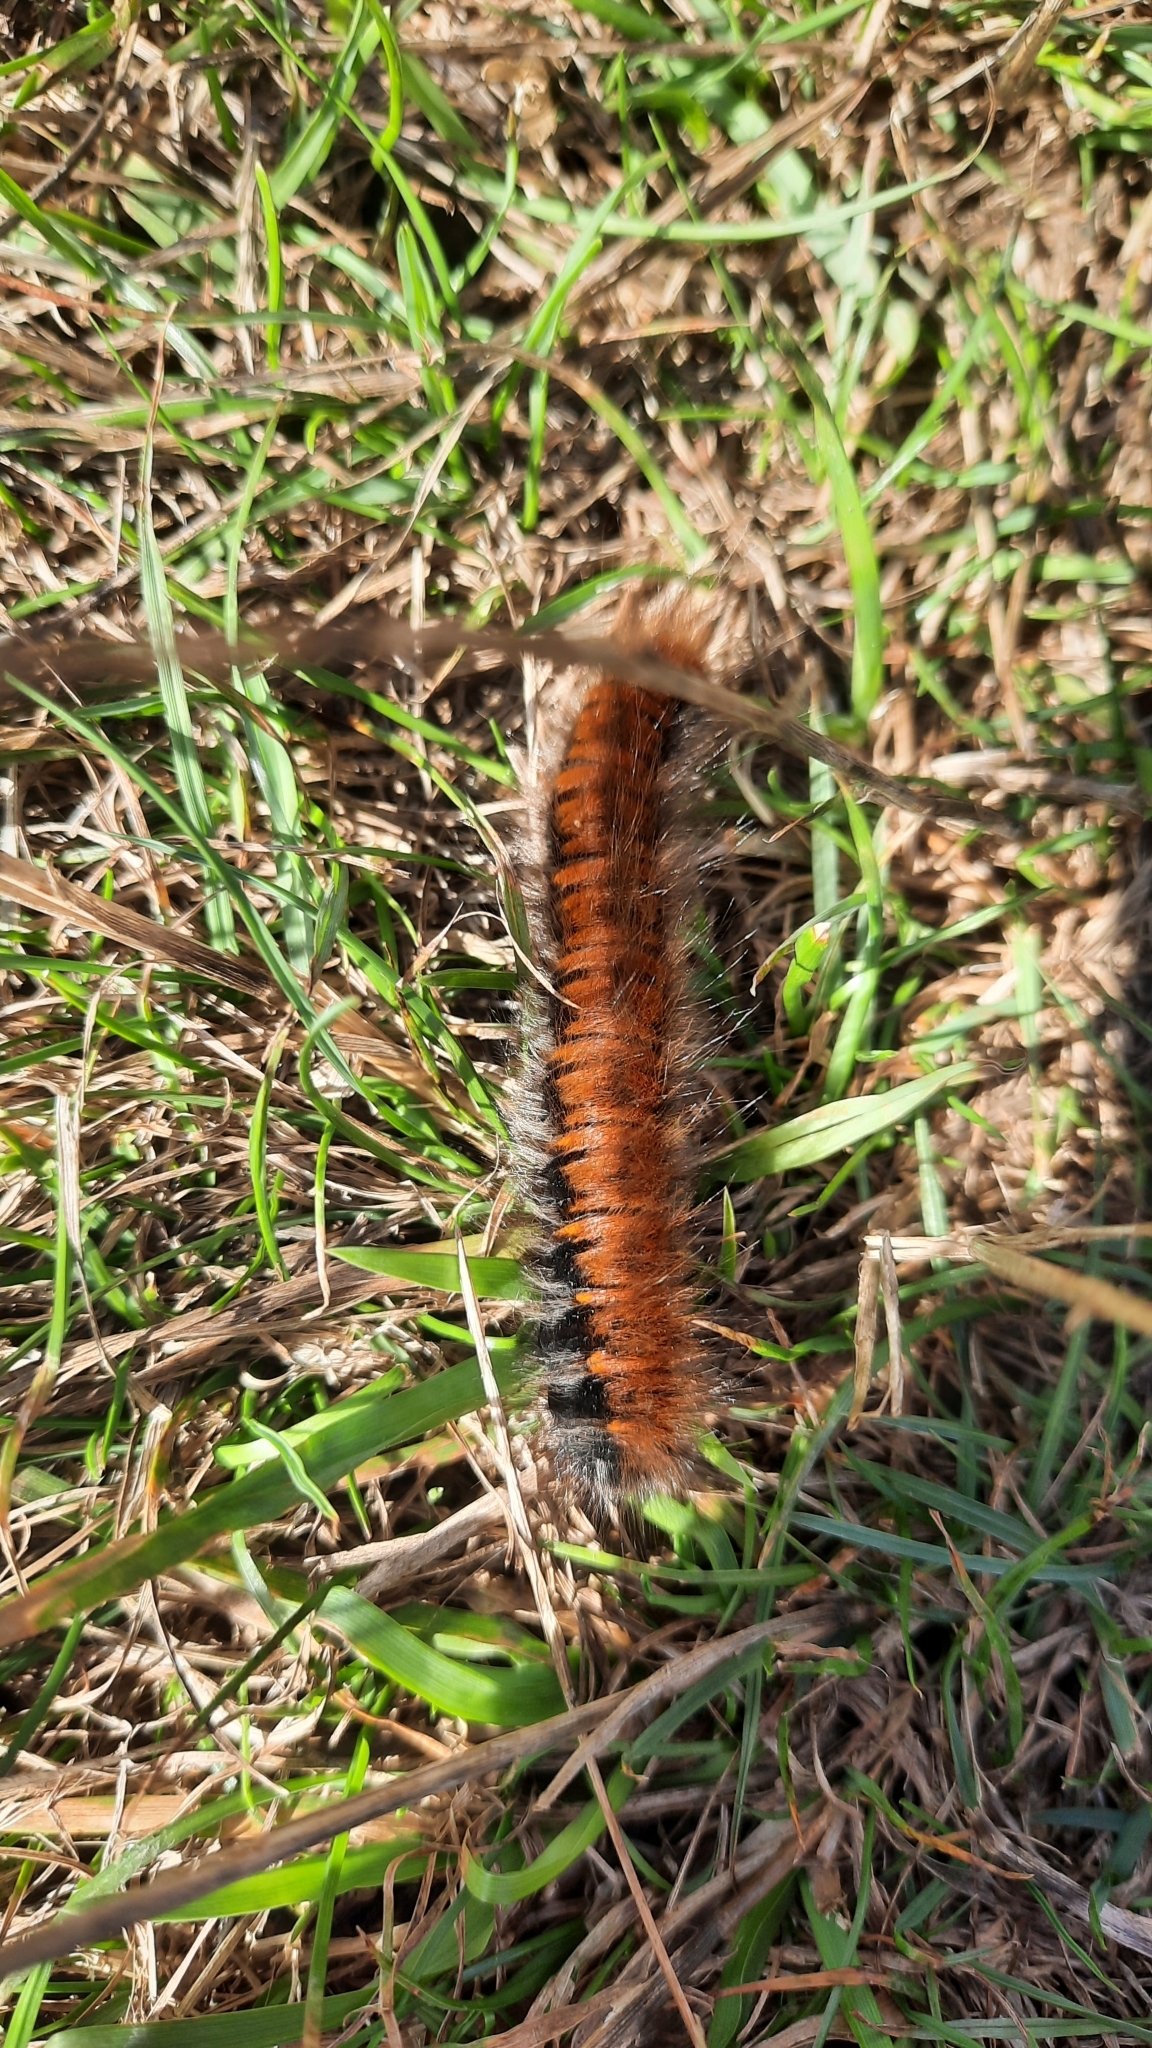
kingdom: Animalia
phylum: Arthropoda
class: Insecta
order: Lepidoptera
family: Lasiocampidae
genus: Macrothylacia
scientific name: Macrothylacia rubi
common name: Fox moth
